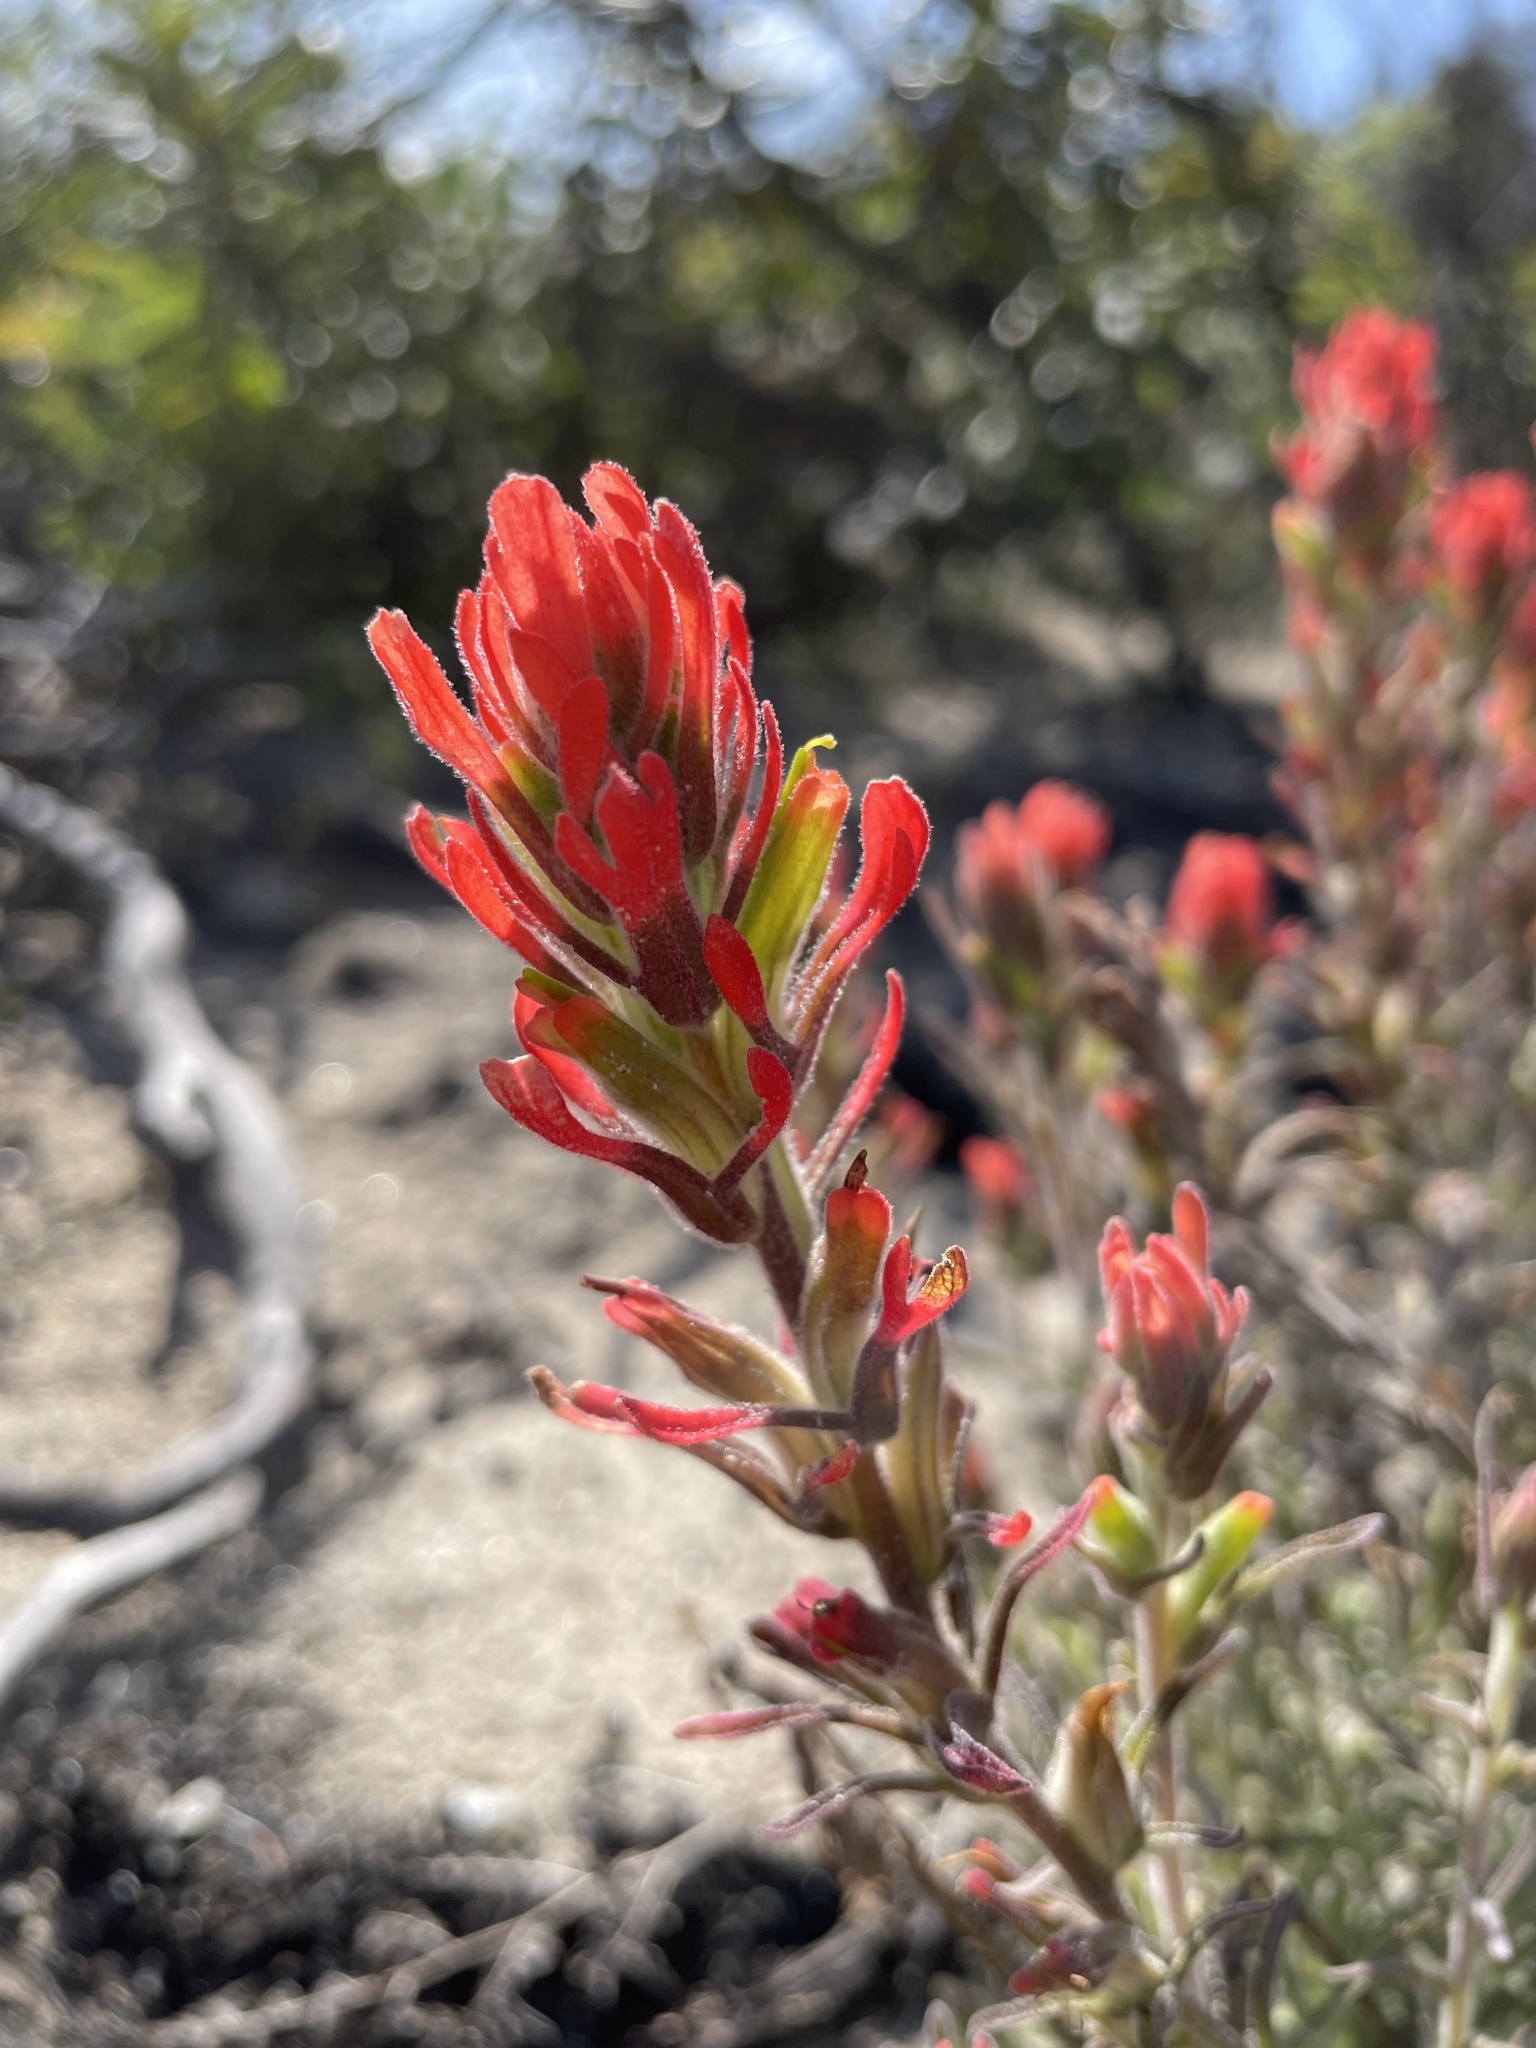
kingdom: Plantae
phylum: Tracheophyta
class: Magnoliopsida
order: Lamiales
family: Orobanchaceae
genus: Castilleja
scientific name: Castilleja foliolosa
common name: Woolly indian paintbrush
